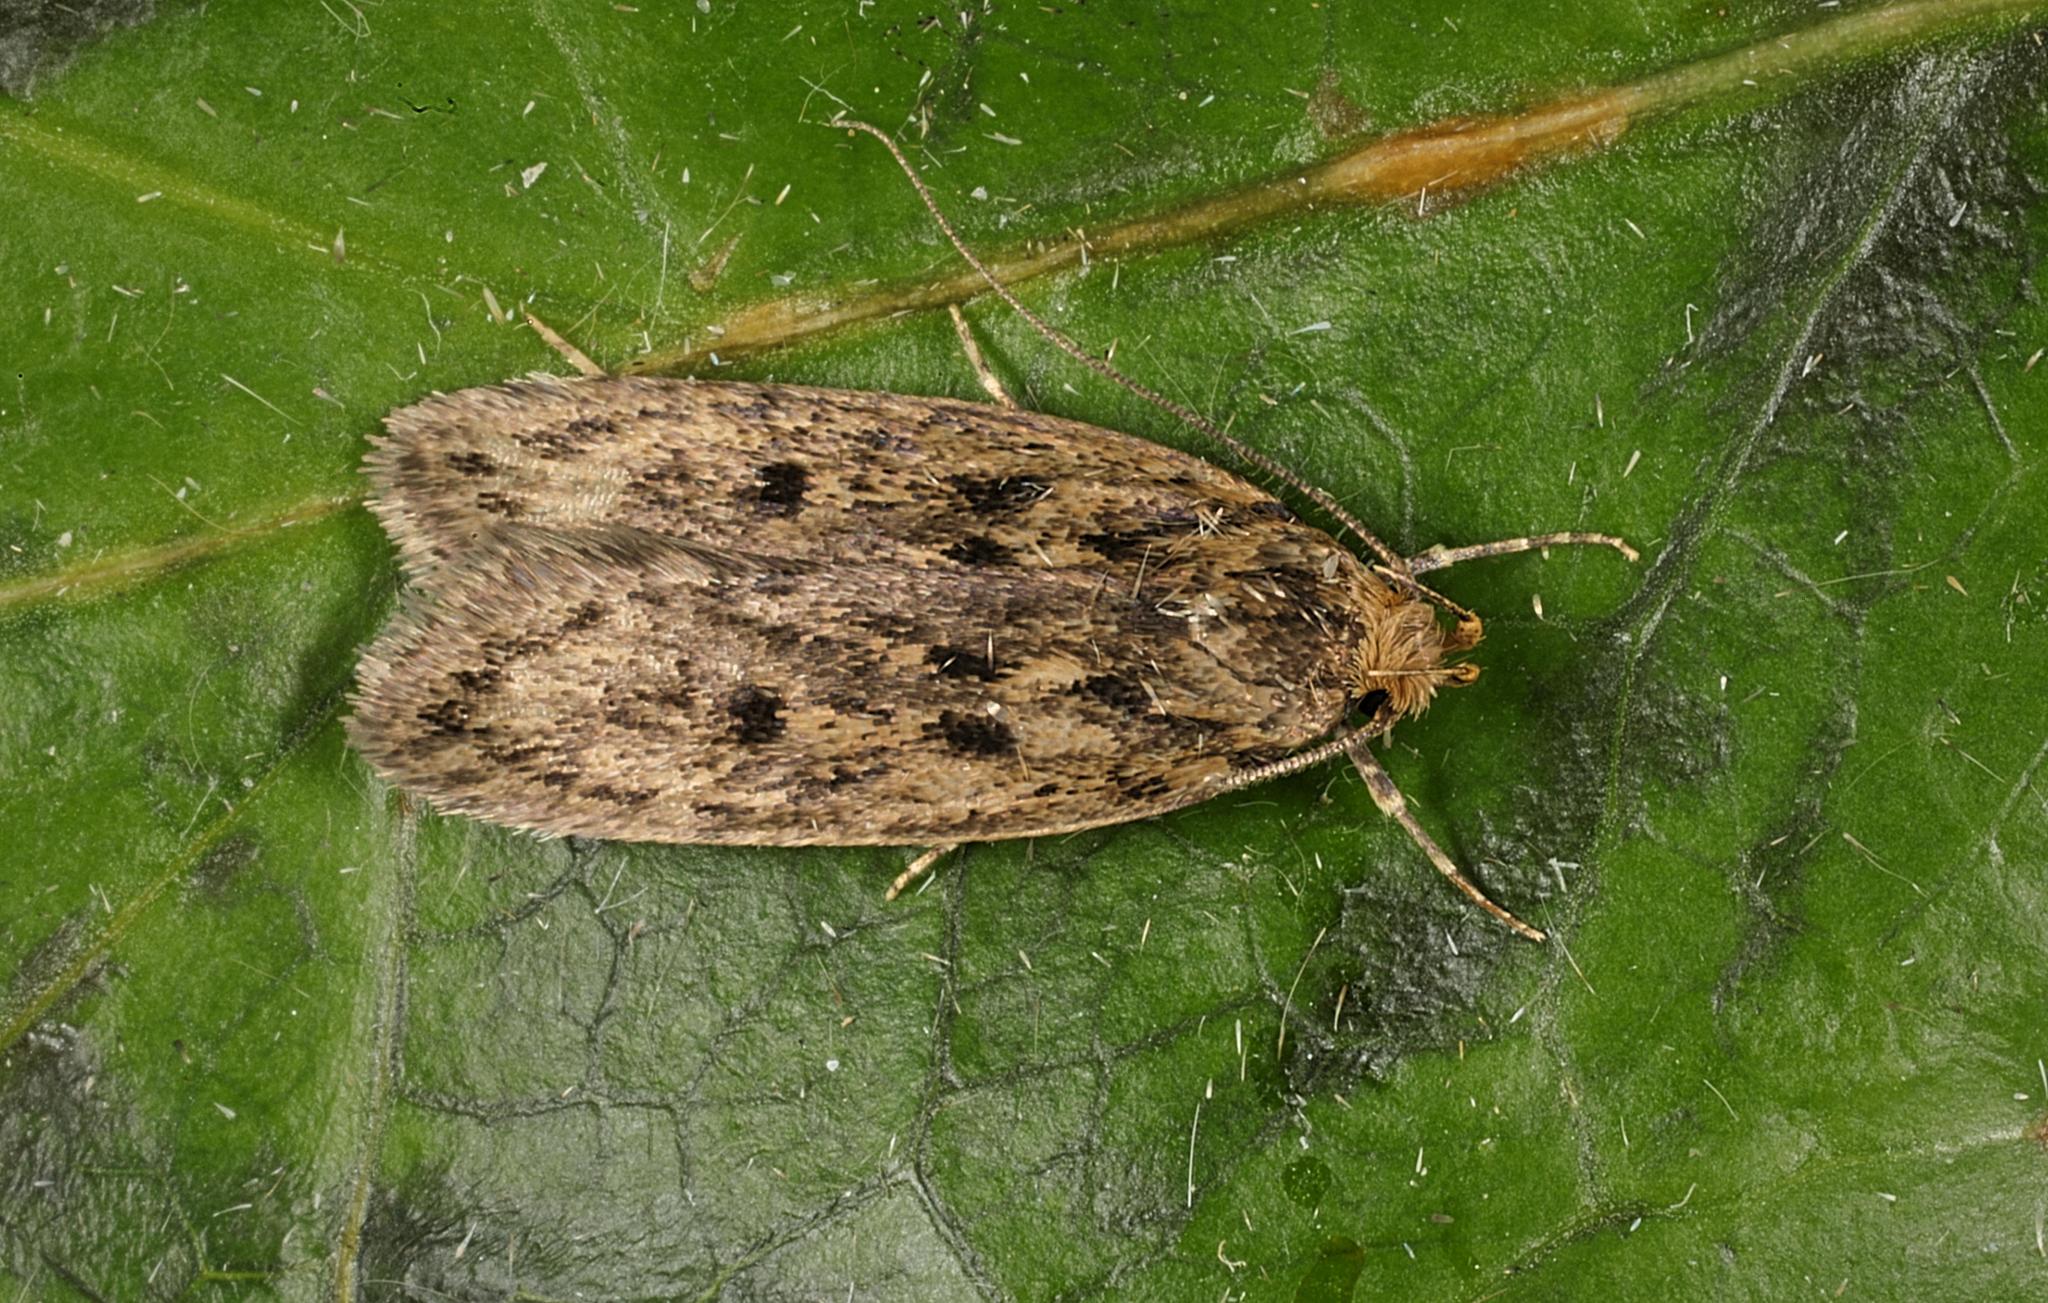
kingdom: Animalia
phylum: Arthropoda
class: Insecta
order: Lepidoptera
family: Oecophoridae
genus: Hofmannophila
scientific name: Hofmannophila pseudospretella
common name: Brown house moth
